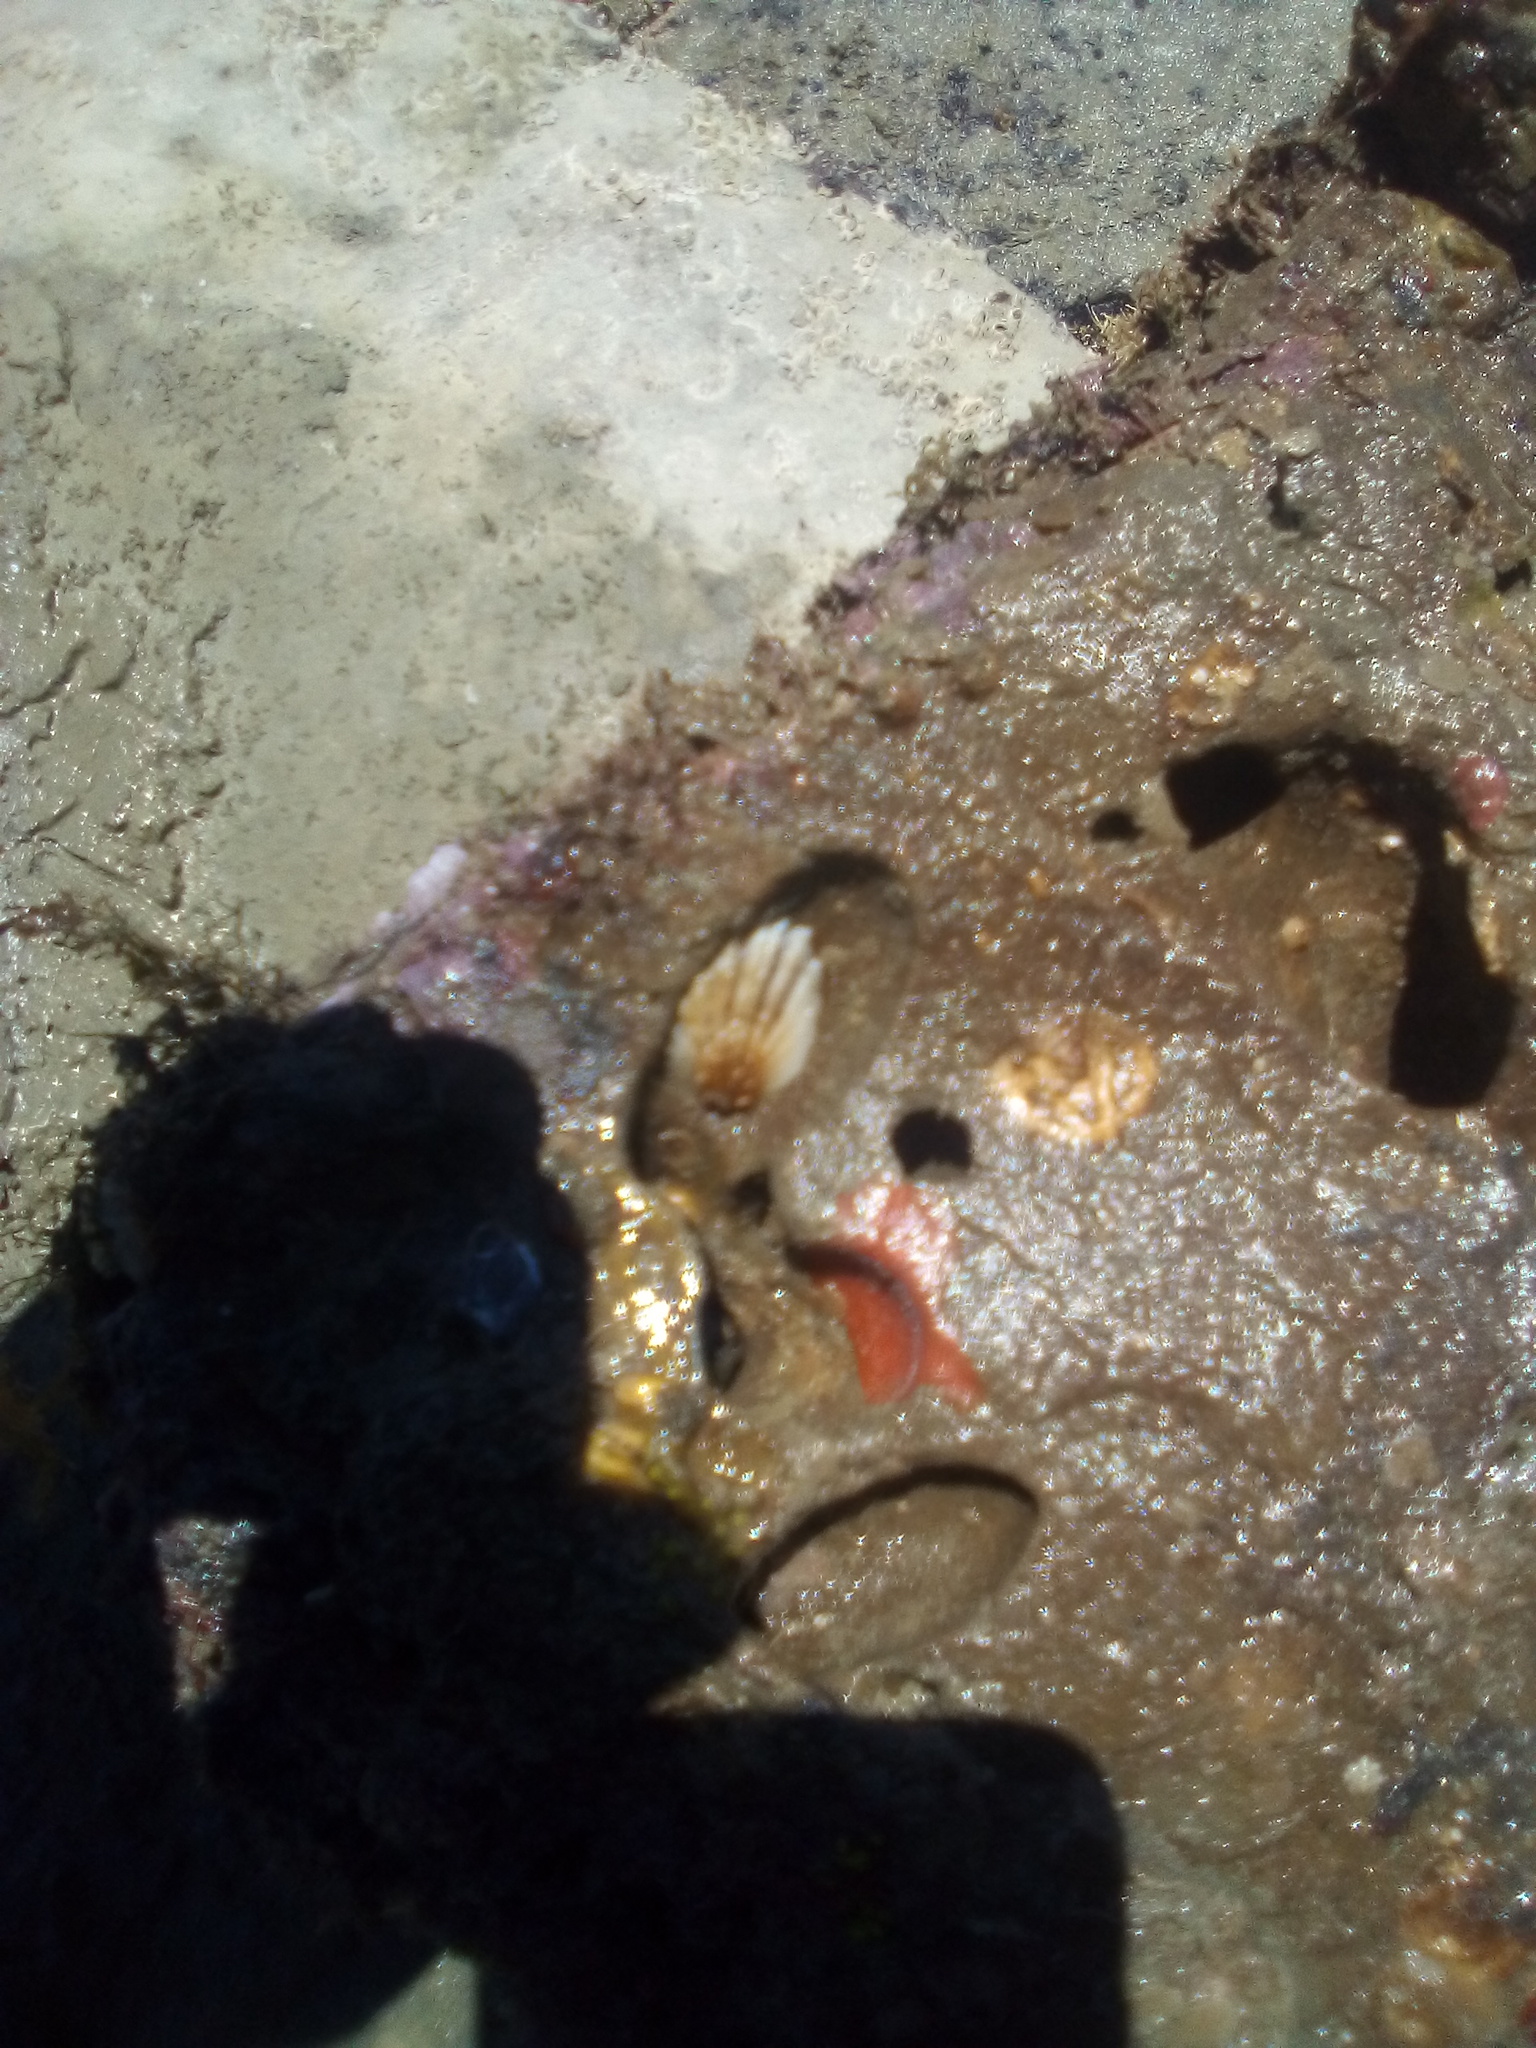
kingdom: Animalia
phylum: Mollusca
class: Gastropoda
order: Littorinimorpha
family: Calyptraeidae
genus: Maoricrypta
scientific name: Maoricrypta costata
